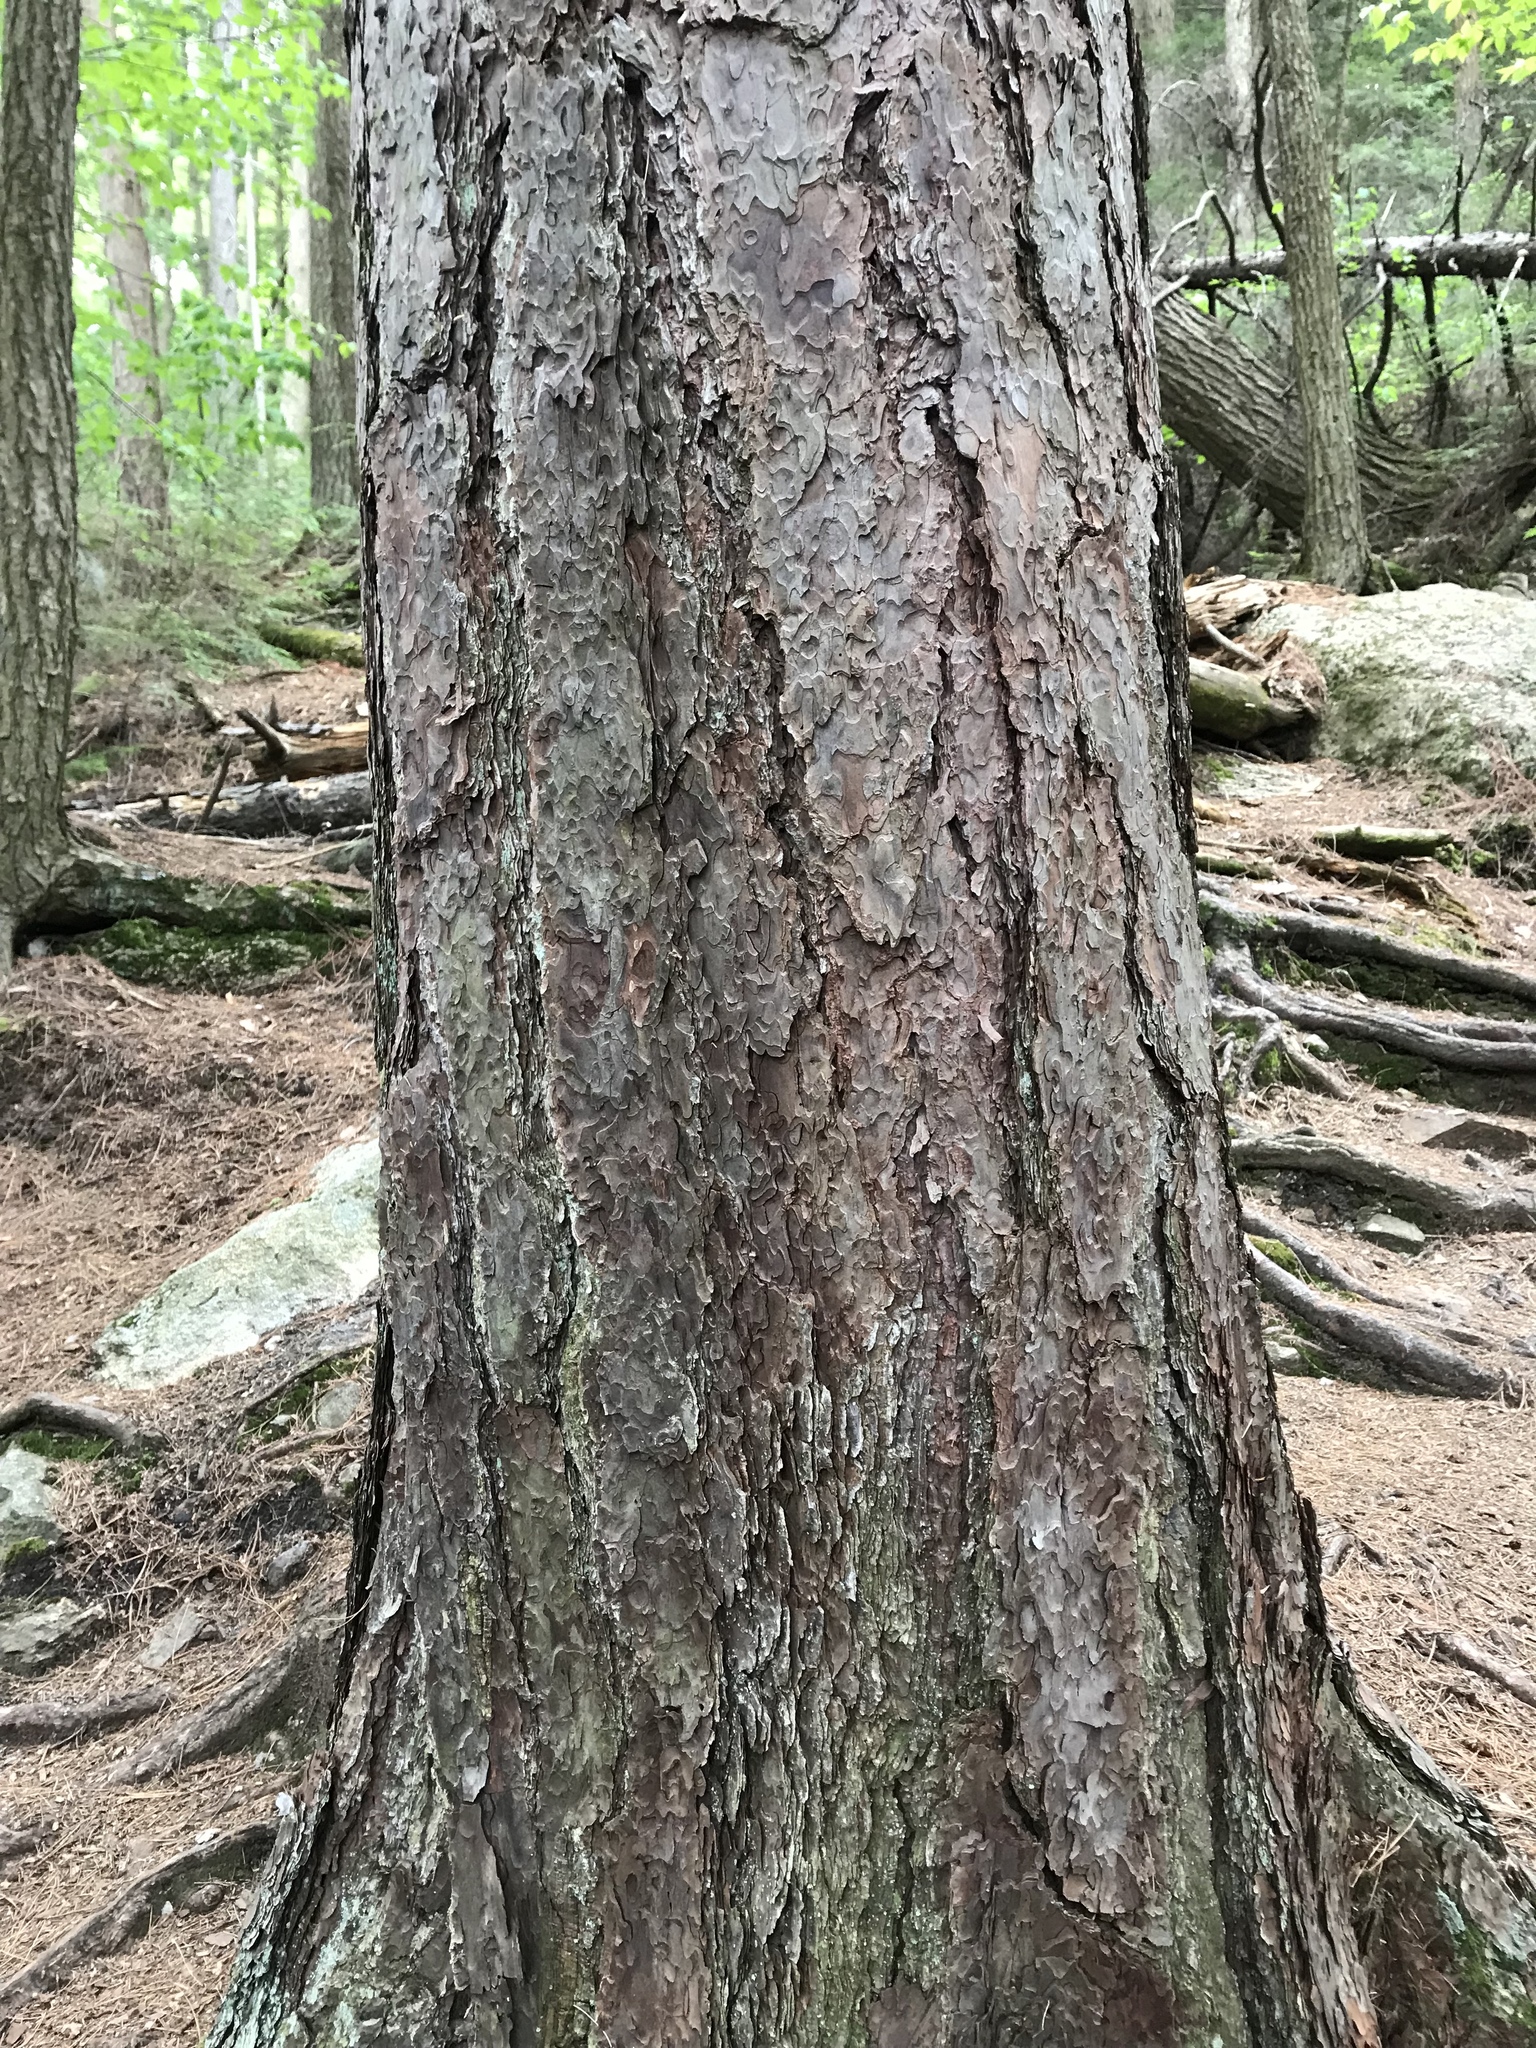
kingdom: Plantae
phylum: Tracheophyta
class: Pinopsida
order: Pinales
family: Pinaceae
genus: Pinus
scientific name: Pinus resinosa
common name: Norway pine
